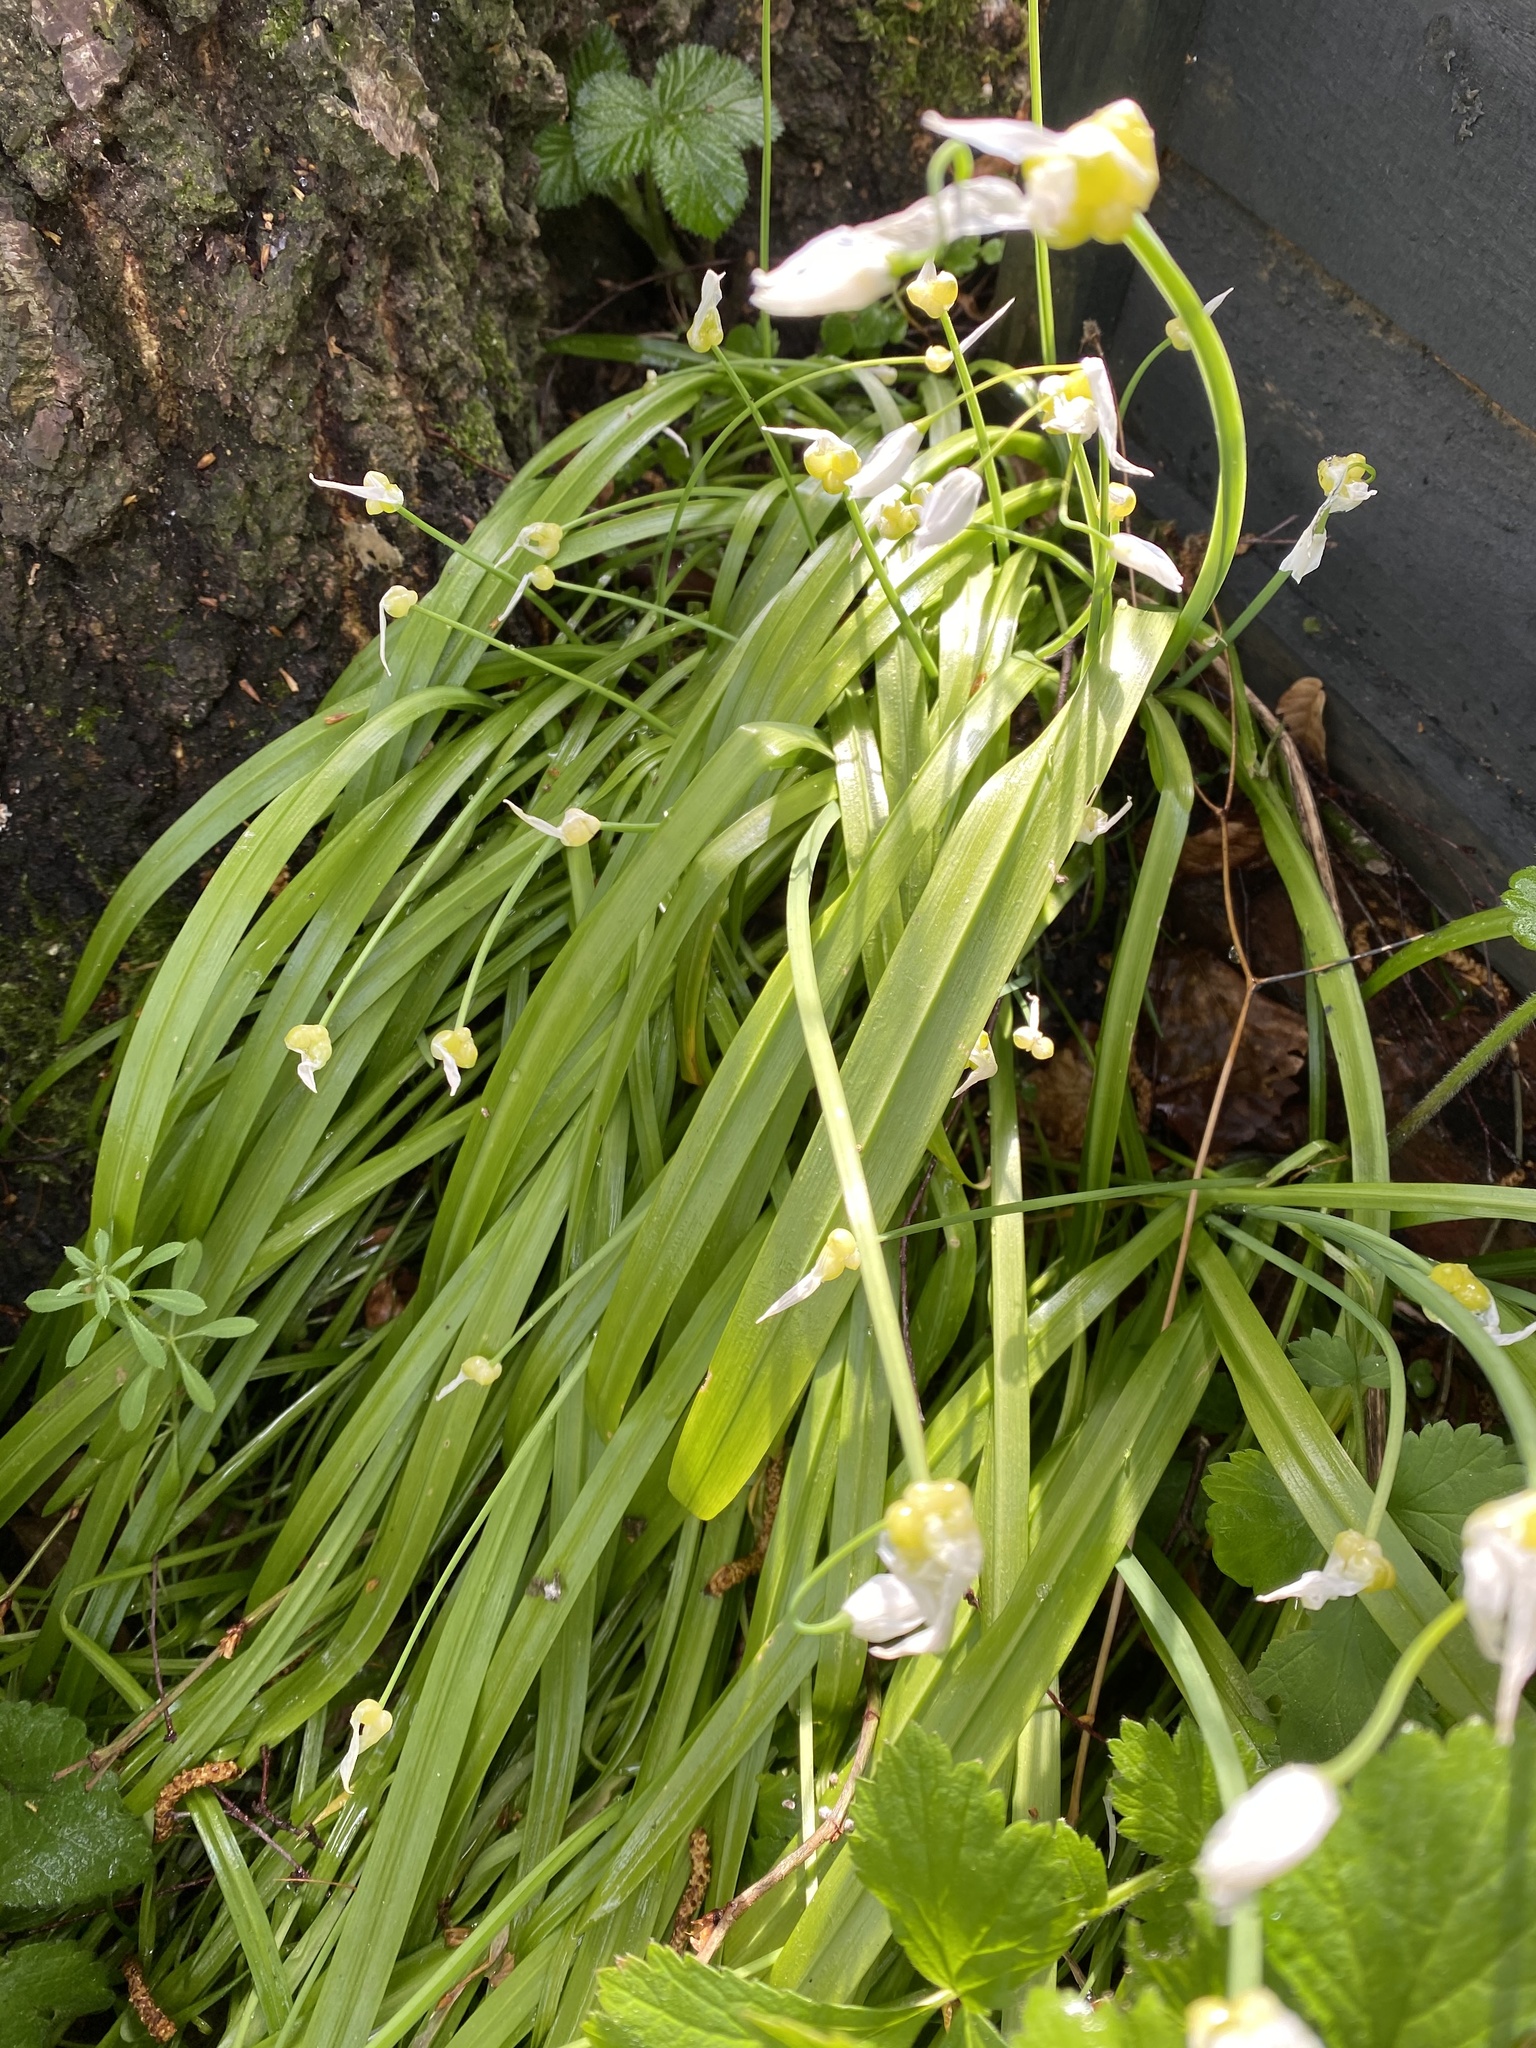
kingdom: Plantae
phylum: Tracheophyta
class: Liliopsida
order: Asparagales
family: Amaryllidaceae
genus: Allium
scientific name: Allium paradoxum
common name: Few-flowered garlic
